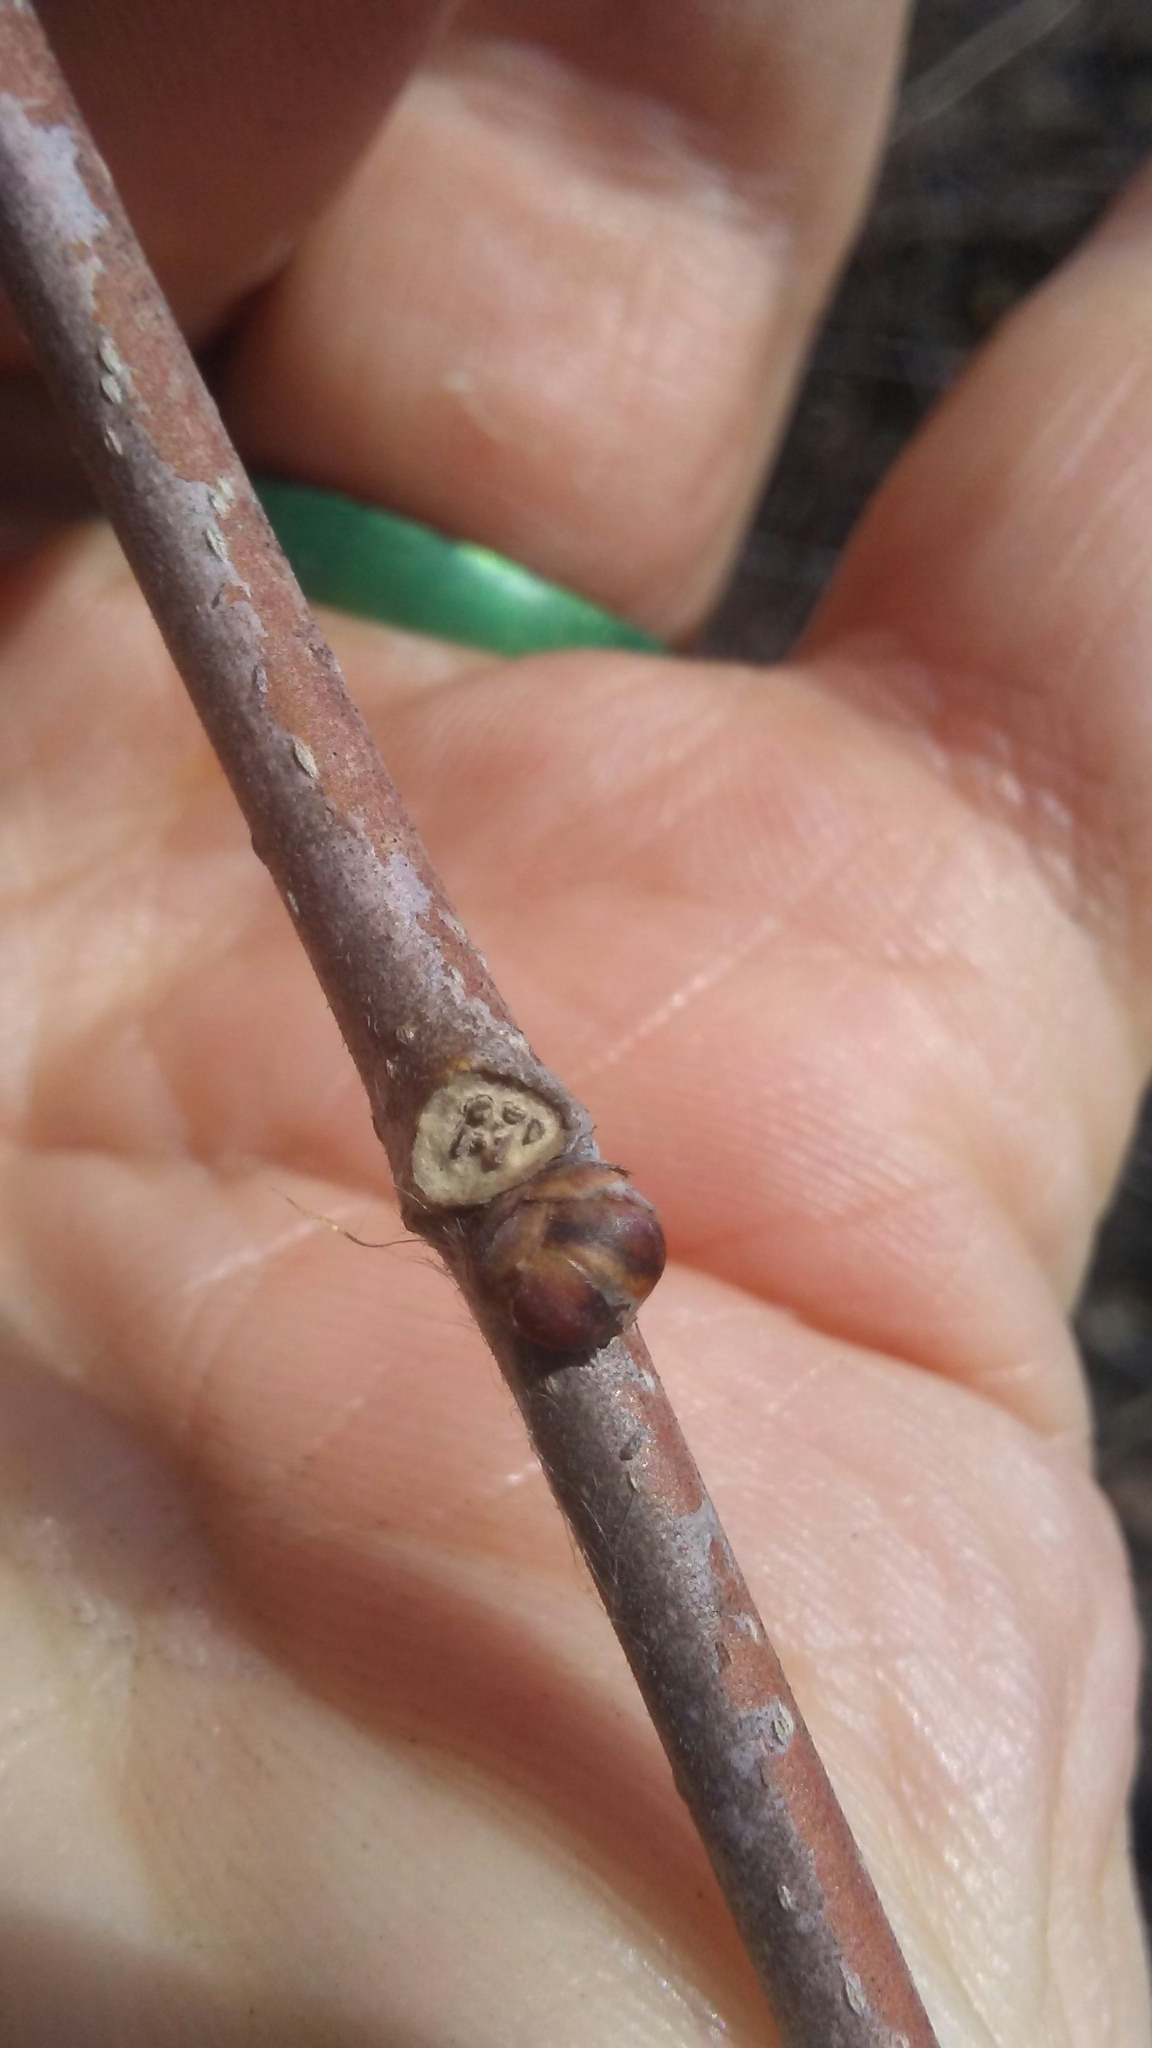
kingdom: Plantae
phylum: Tracheophyta
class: Magnoliopsida
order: Rosales
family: Moraceae
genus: Morus
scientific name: Morus alba
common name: White mulberry
